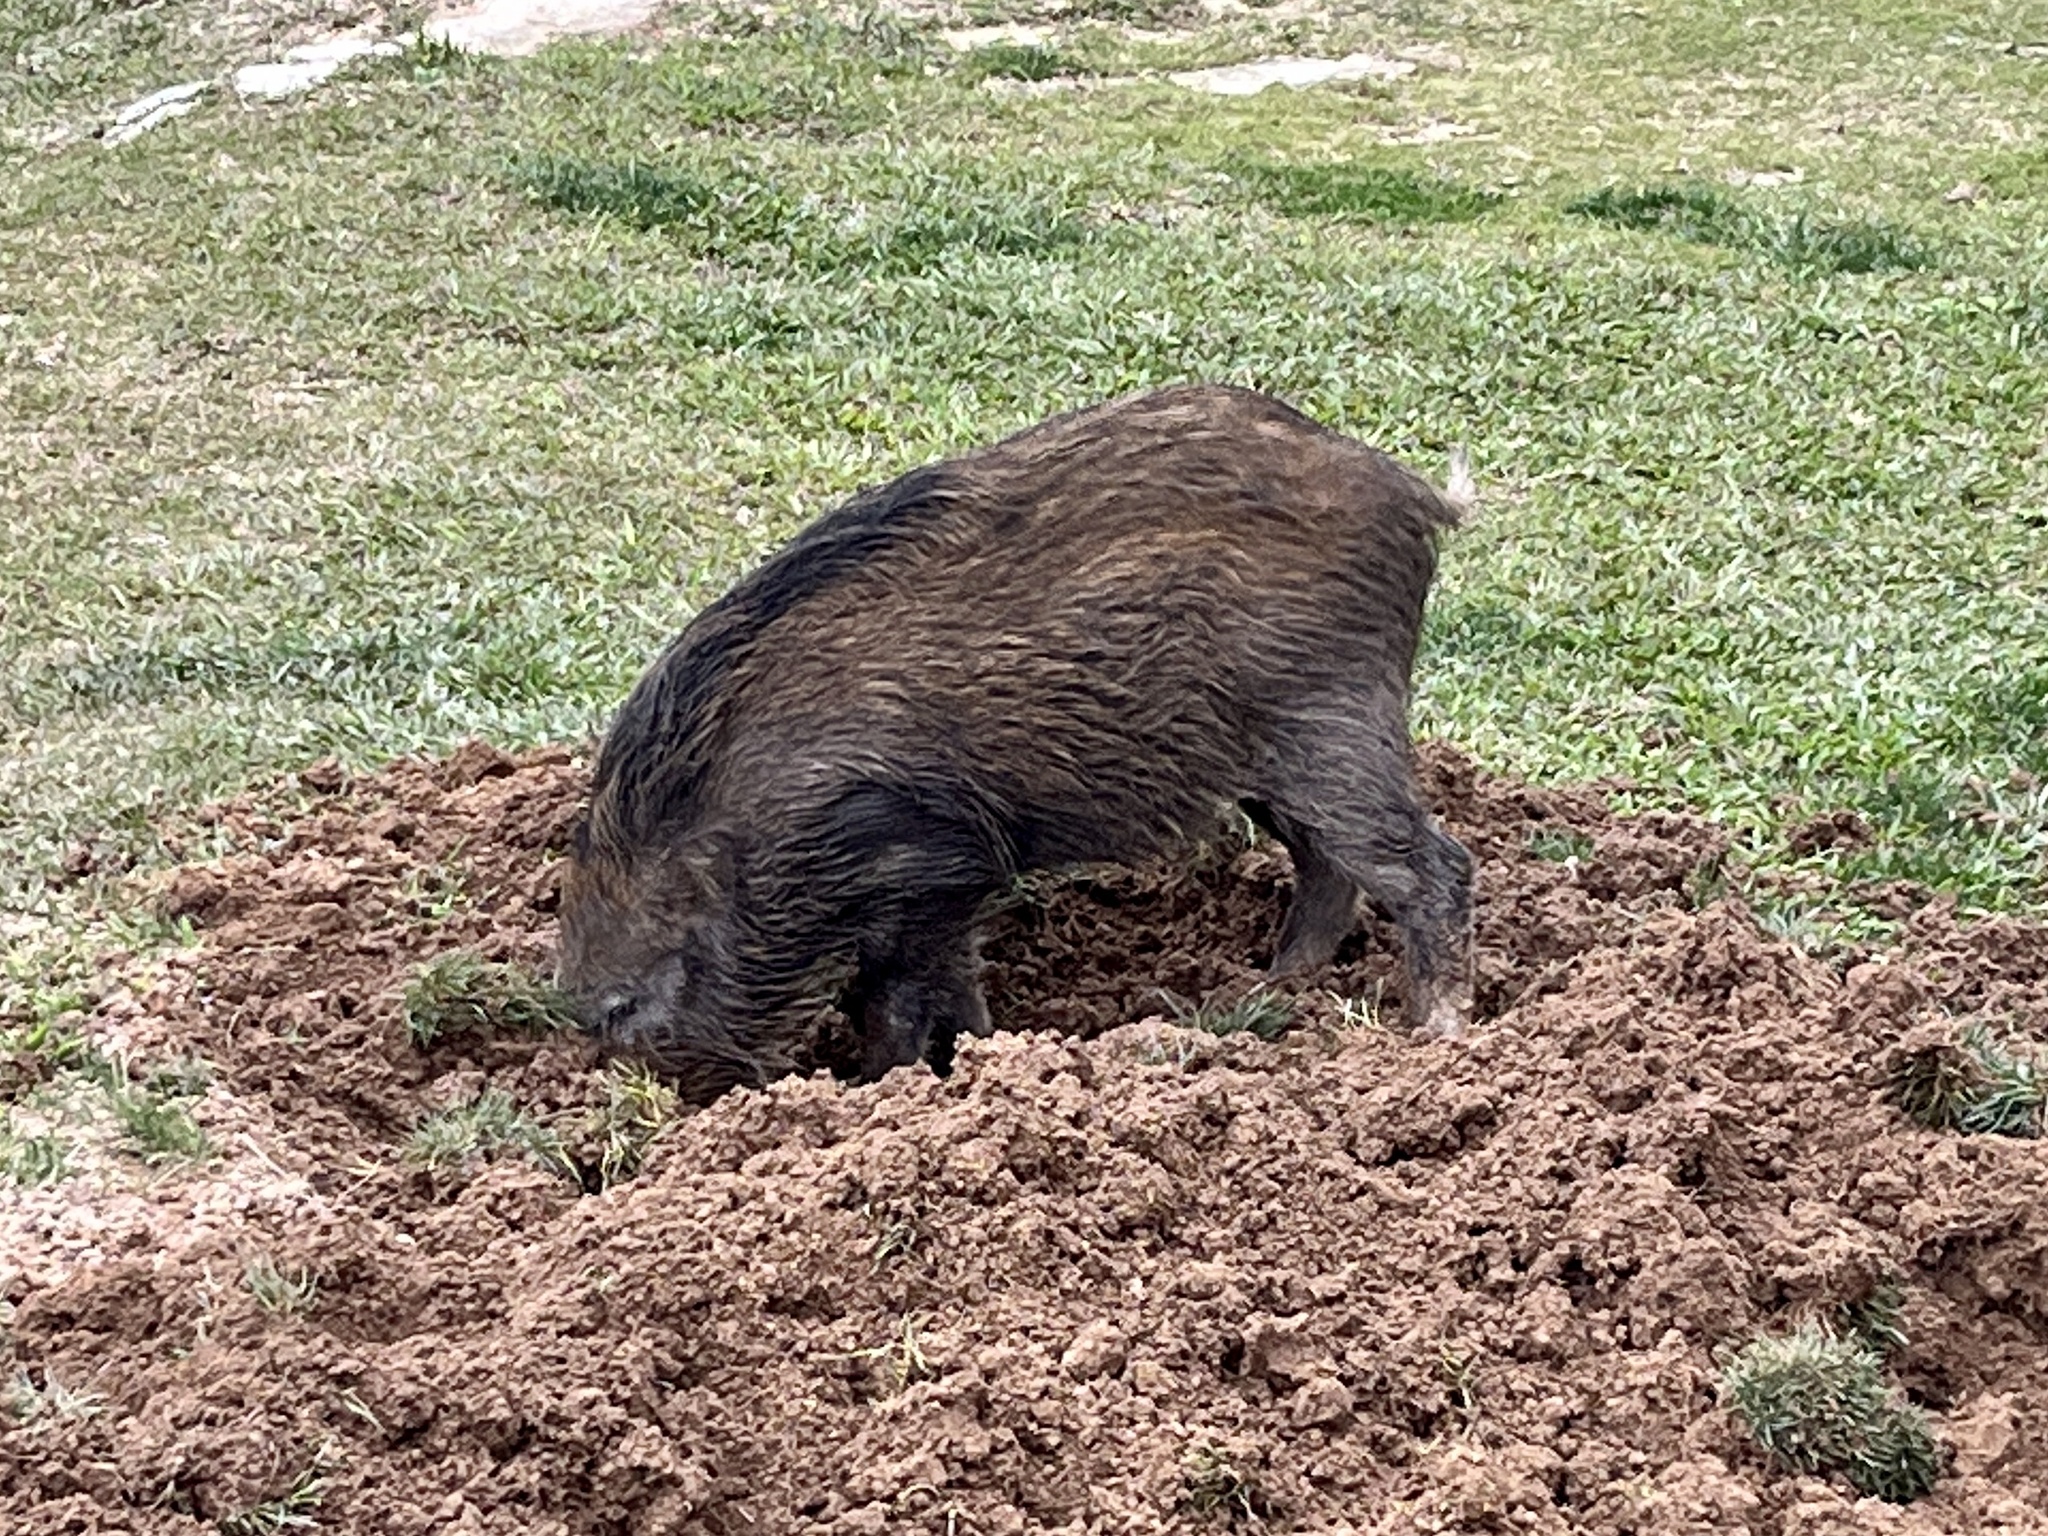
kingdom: Animalia
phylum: Chordata
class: Mammalia
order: Artiodactyla
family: Suidae
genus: Sus
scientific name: Sus scrofa
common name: Wild boar
